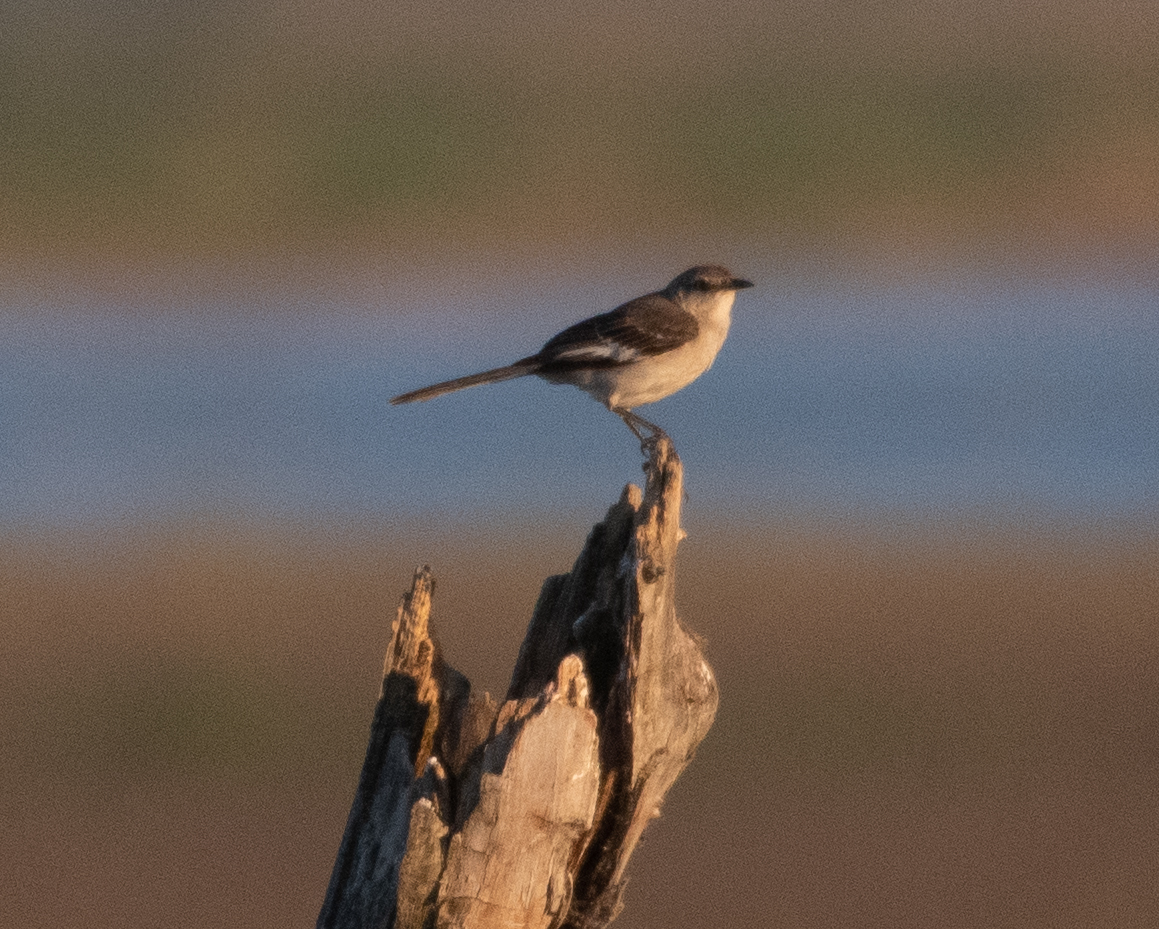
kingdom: Animalia
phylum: Chordata
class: Aves
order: Passeriformes
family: Mimidae
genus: Mimus
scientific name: Mimus polyglottos
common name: Northern mockingbird
